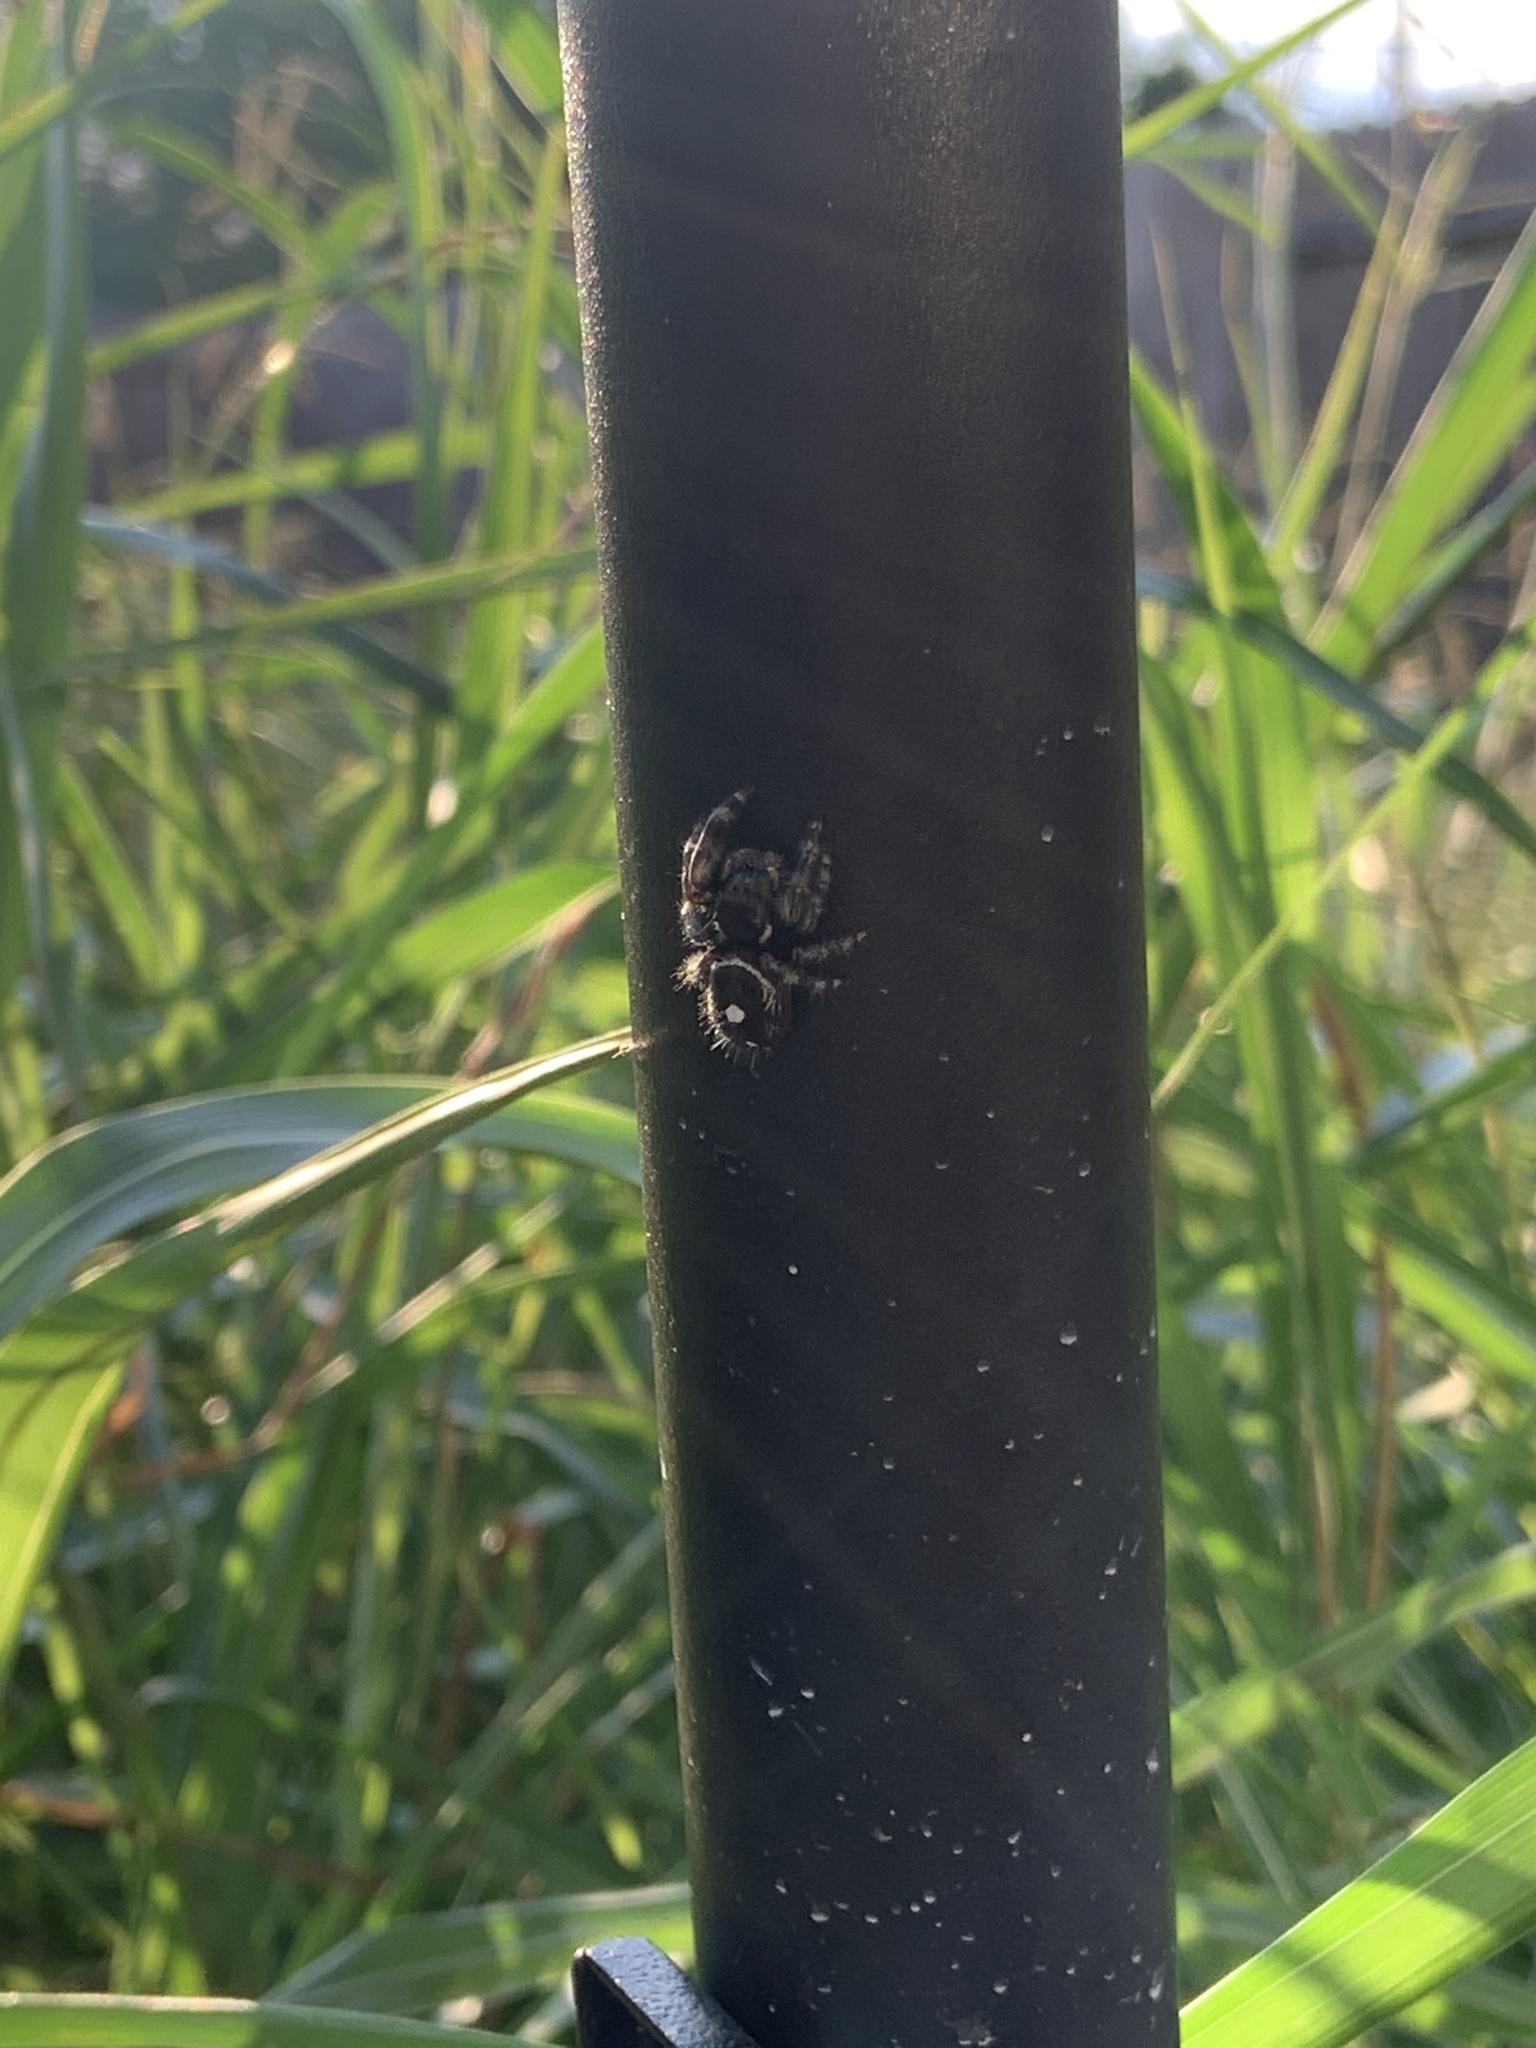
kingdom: Animalia
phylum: Arthropoda
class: Arachnida
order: Araneae
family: Salticidae
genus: Phidippus
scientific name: Phidippus audax
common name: Bold jumper
